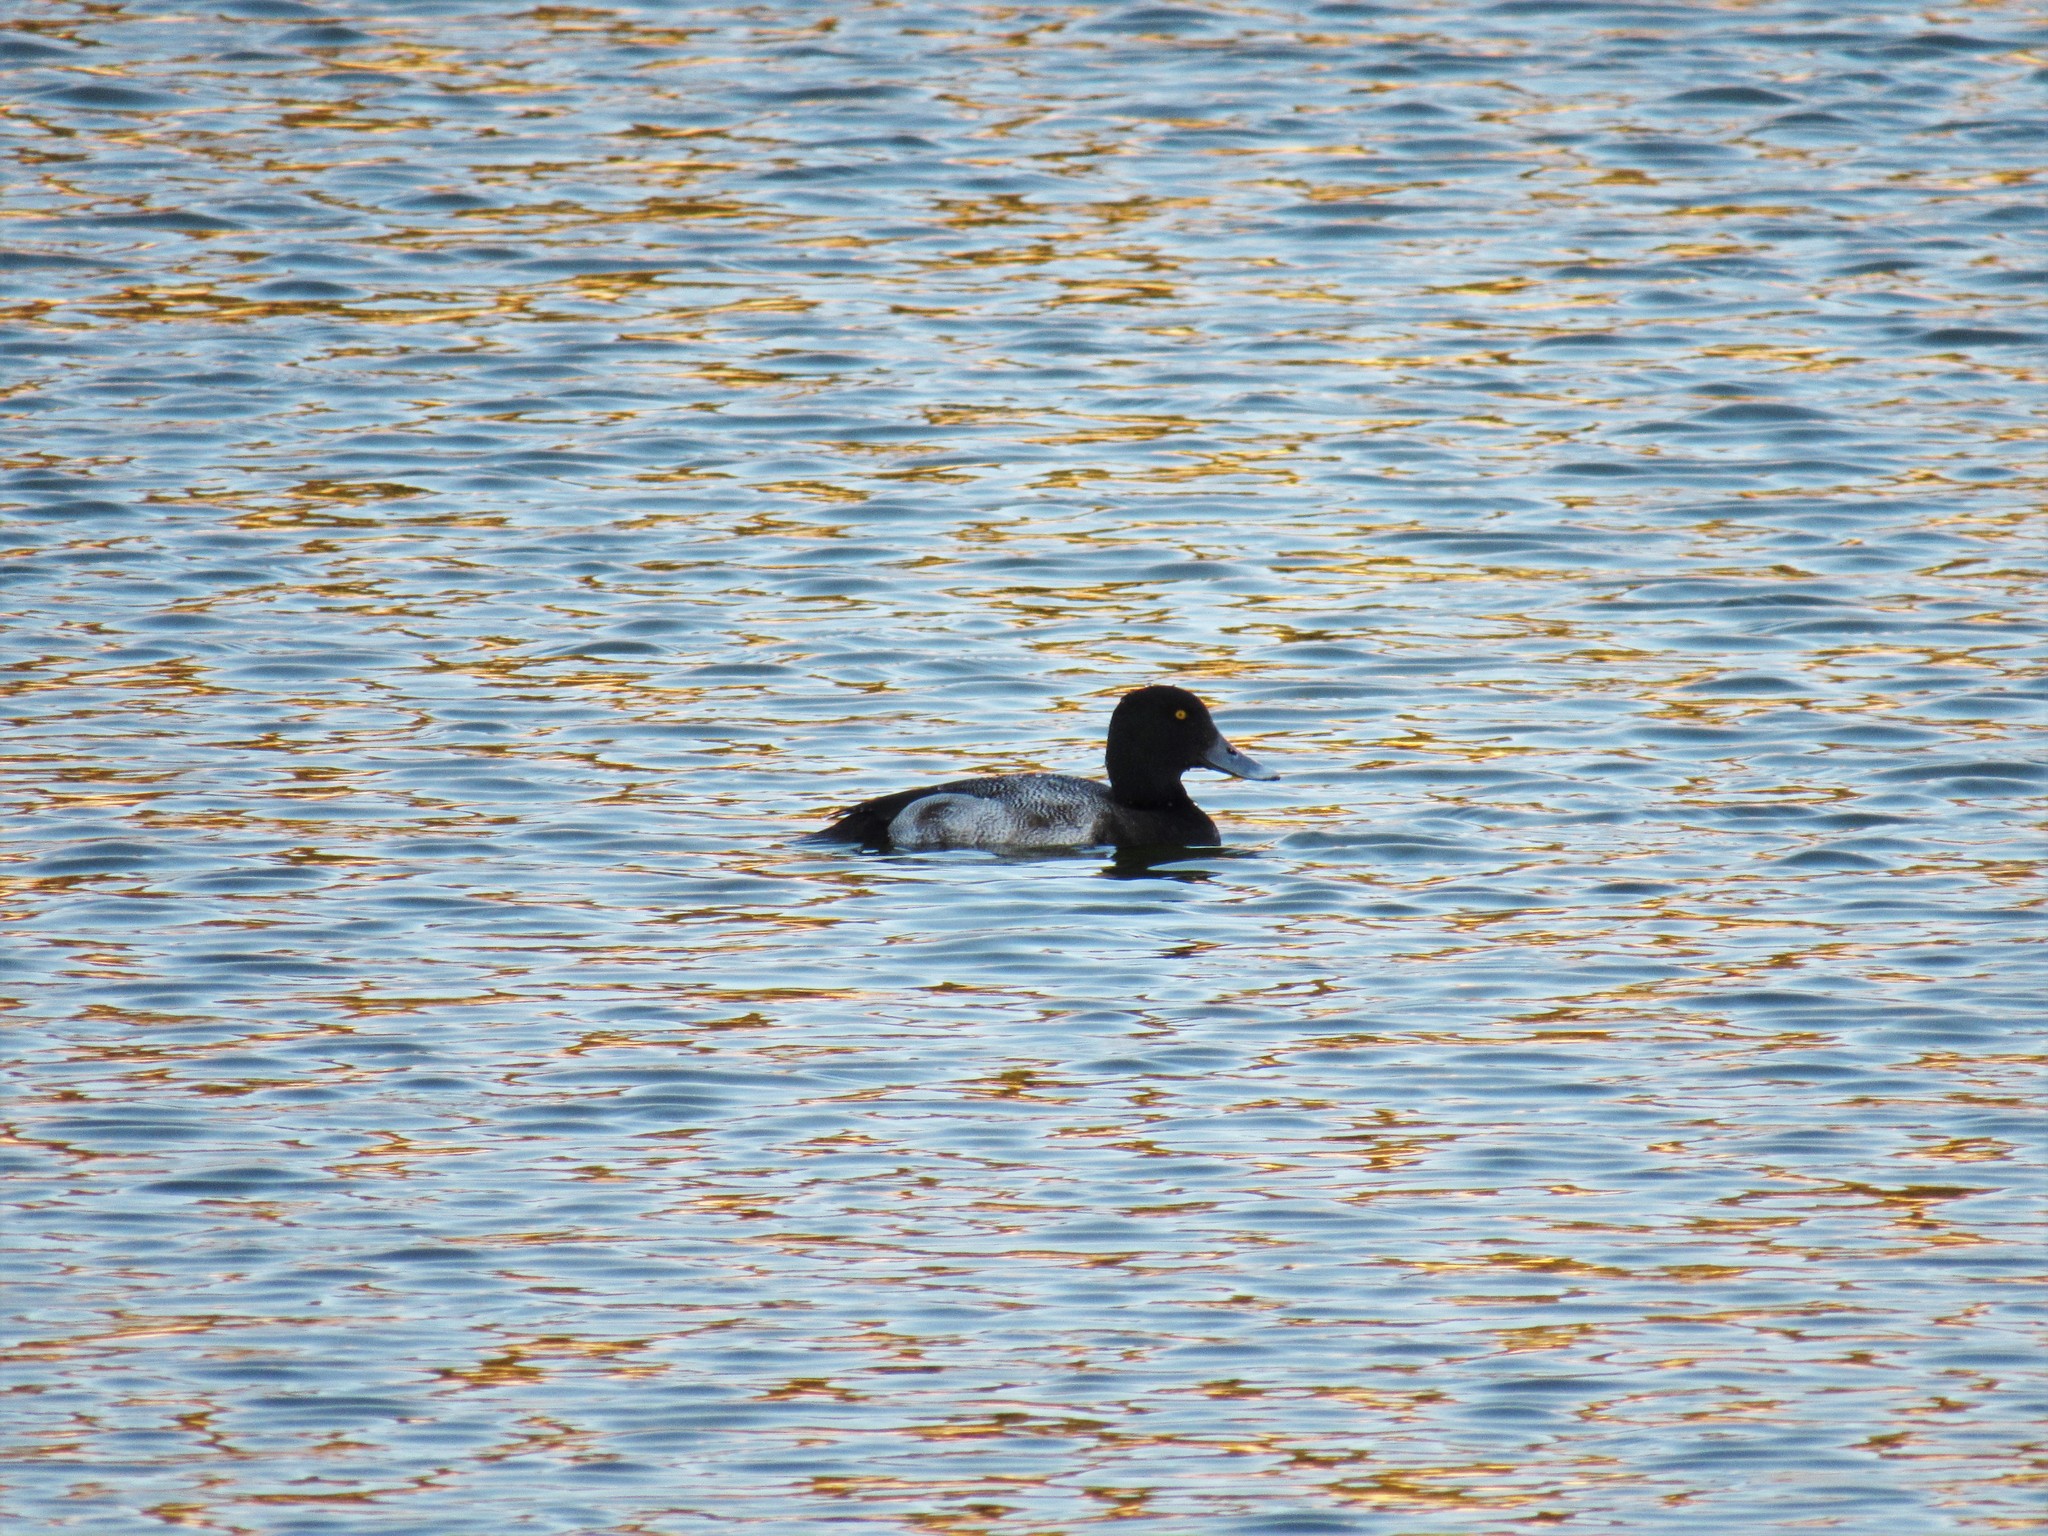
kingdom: Animalia
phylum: Chordata
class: Aves
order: Anseriformes
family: Anatidae
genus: Aythya
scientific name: Aythya affinis
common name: Lesser scaup
